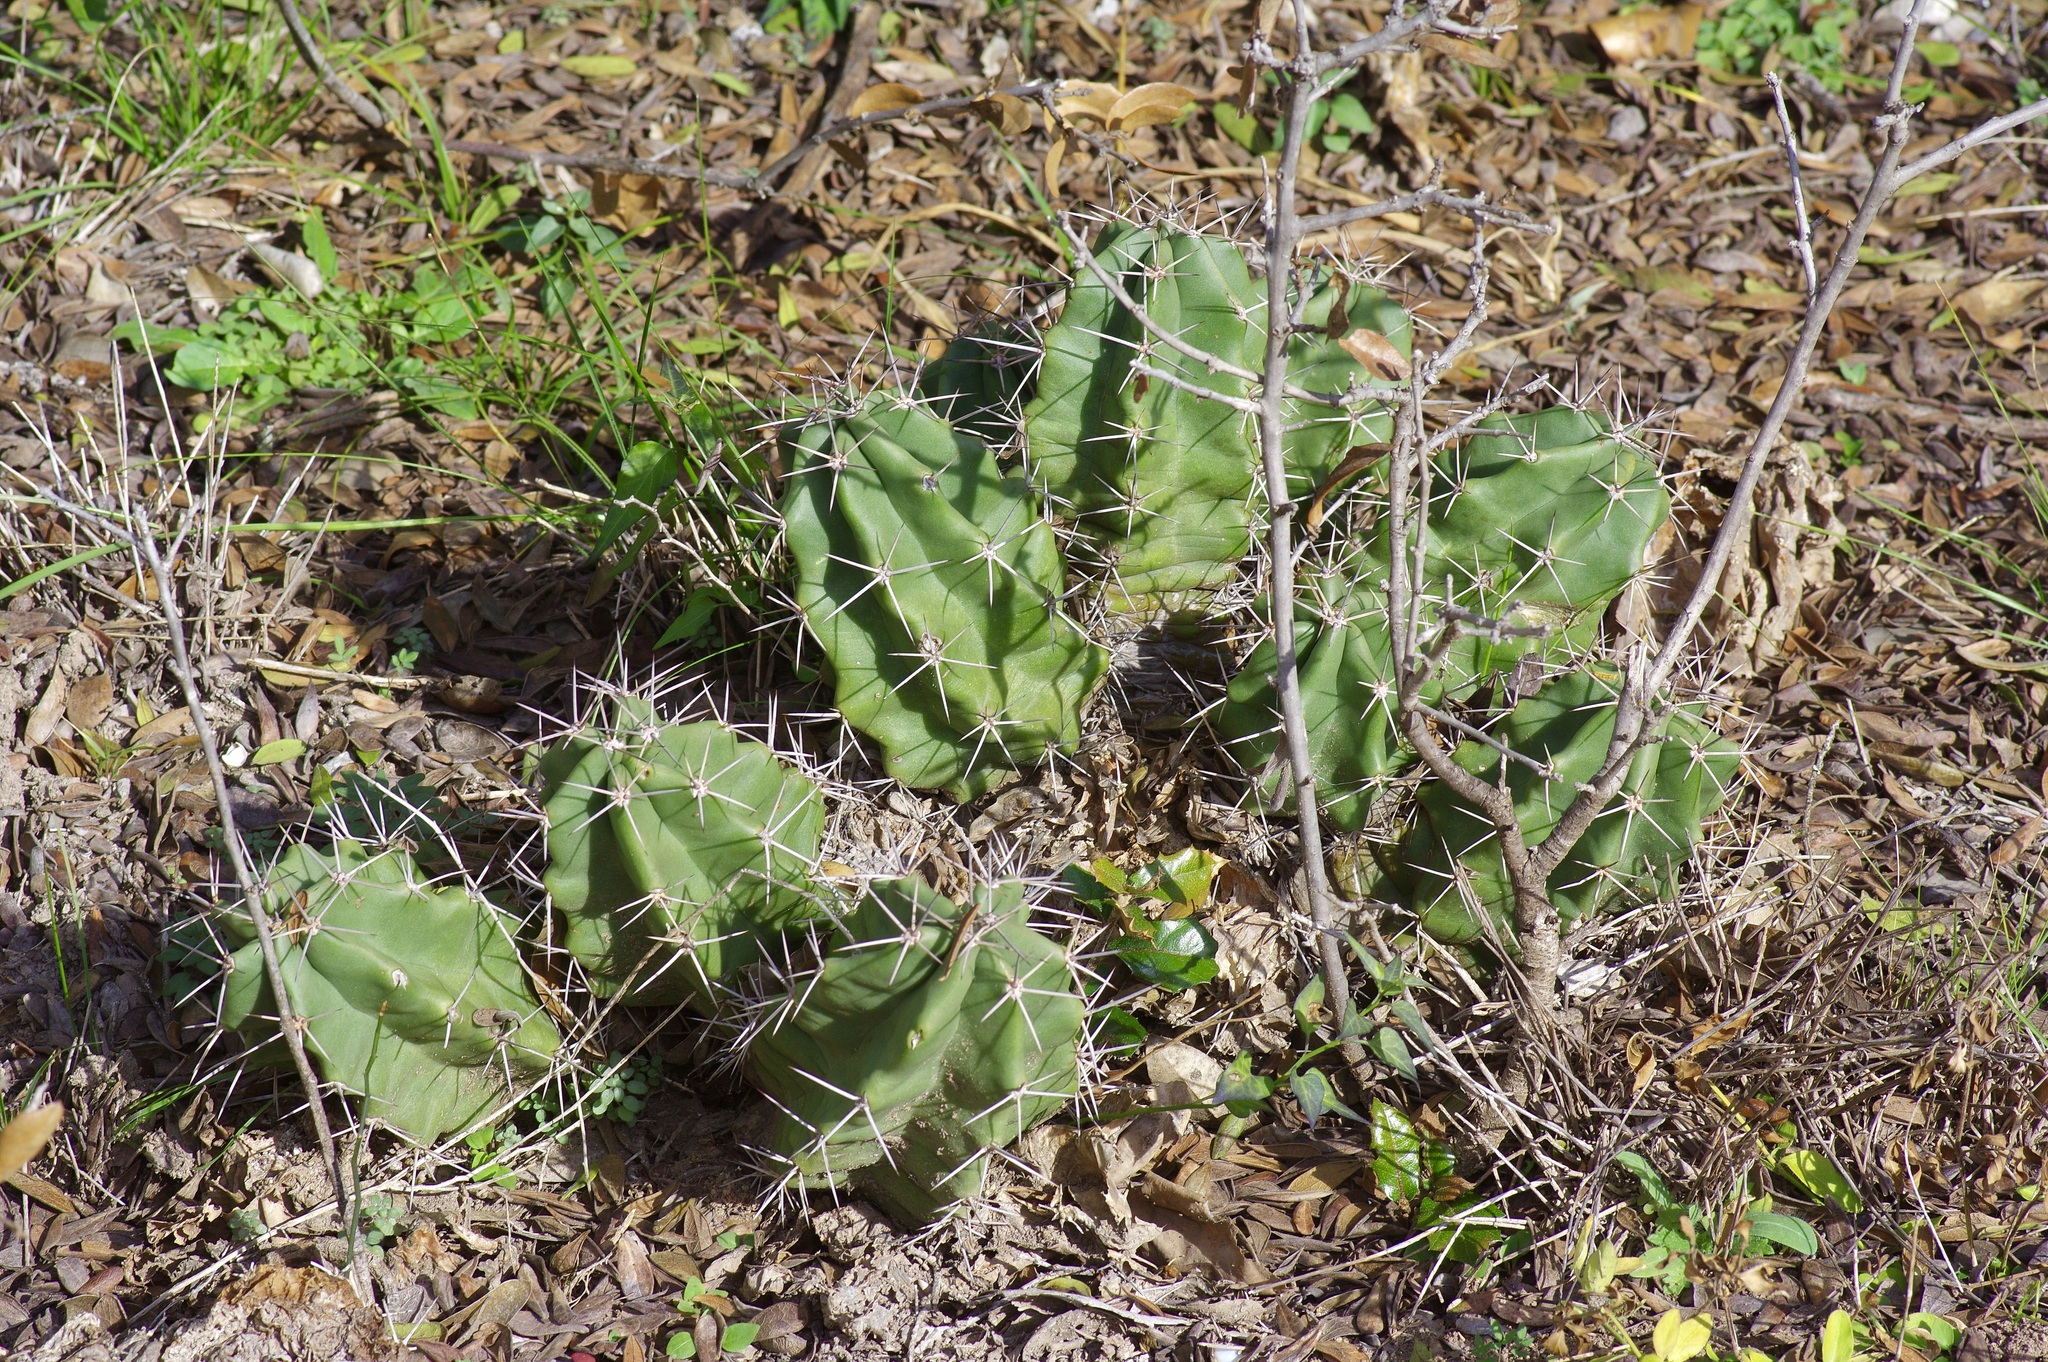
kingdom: Plantae
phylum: Tracheophyta
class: Magnoliopsida
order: Caryophyllales
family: Cactaceae
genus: Echinocereus
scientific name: Echinocereus coccineus
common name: Scarlet hedgehog cactus
